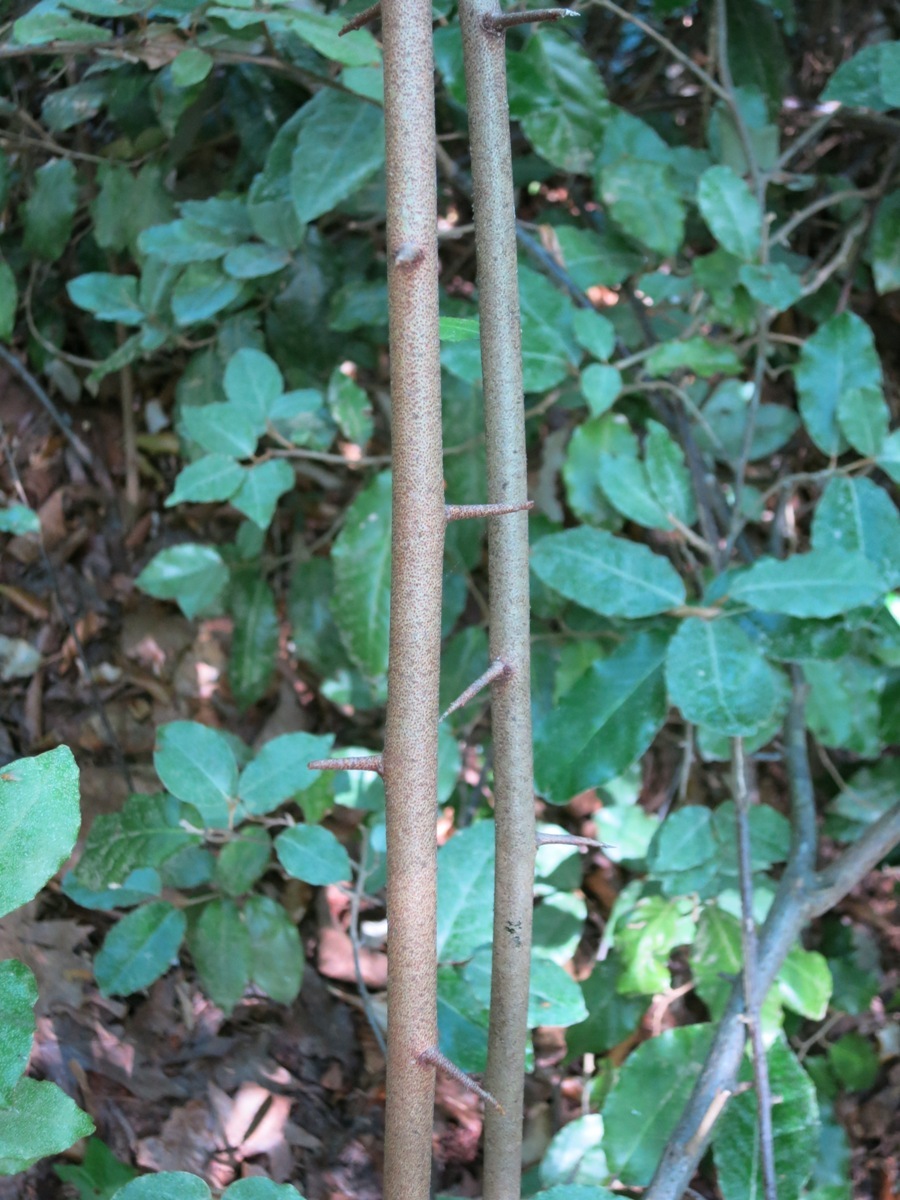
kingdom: Plantae
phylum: Tracheophyta
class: Magnoliopsida
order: Rosales
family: Elaeagnaceae
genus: Elaeagnus
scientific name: Elaeagnus pungens
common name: Spiny oleaster
